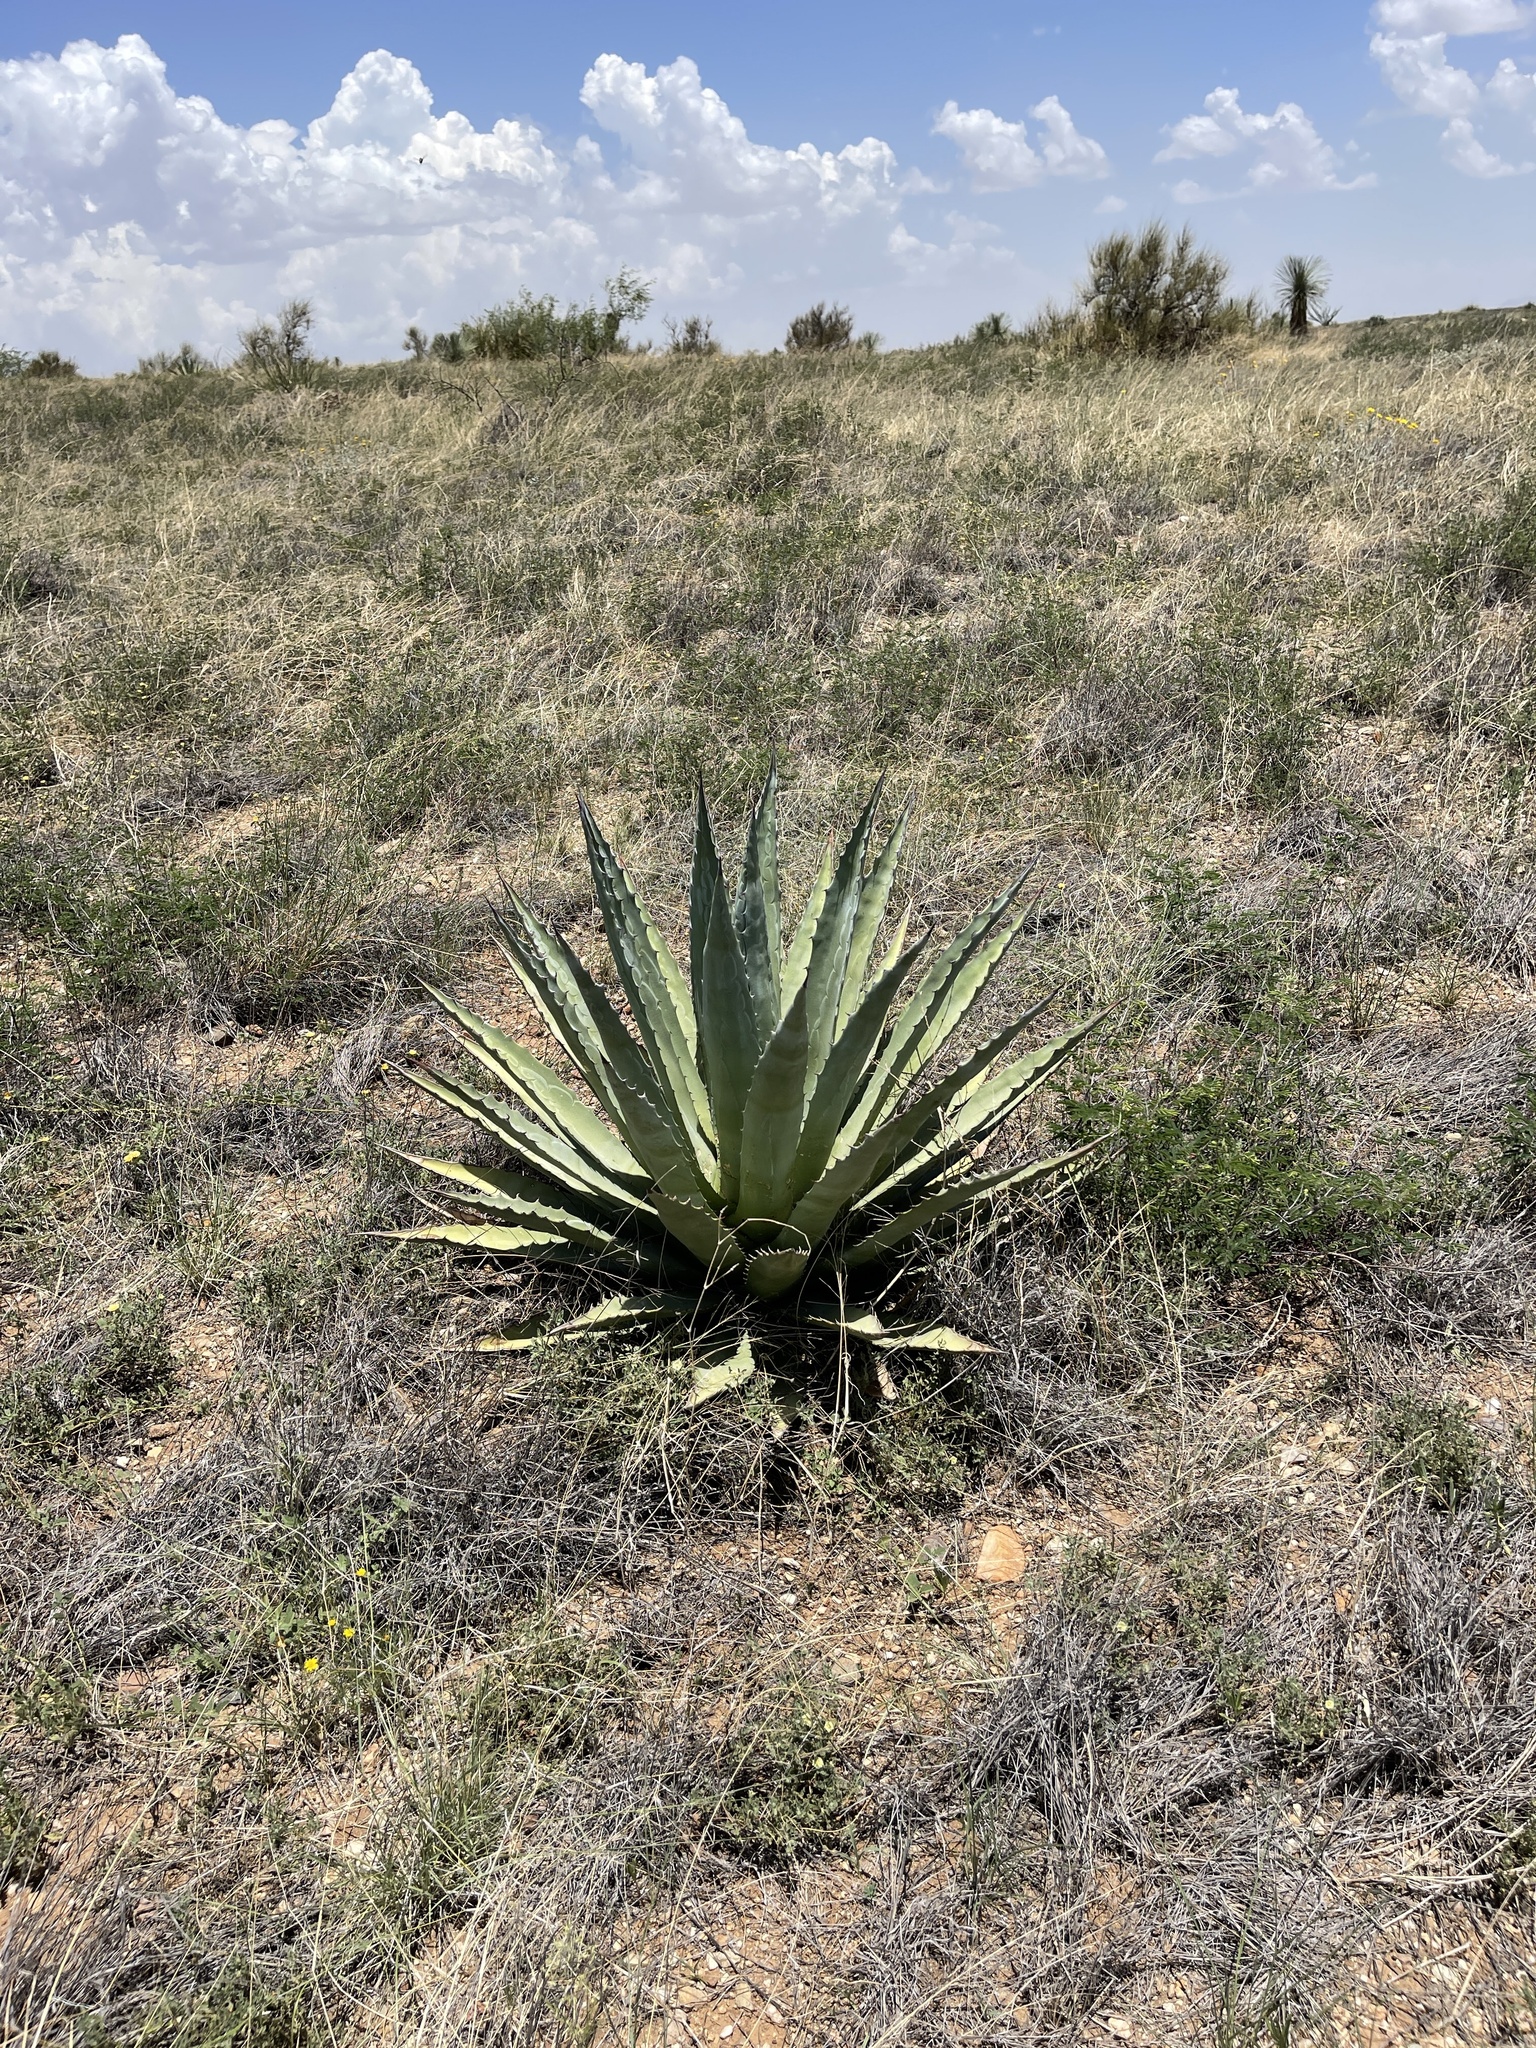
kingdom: Plantae
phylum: Tracheophyta
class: Liliopsida
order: Asparagales
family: Asparagaceae
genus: Agave
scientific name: Agave palmeri
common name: Palmer agave
